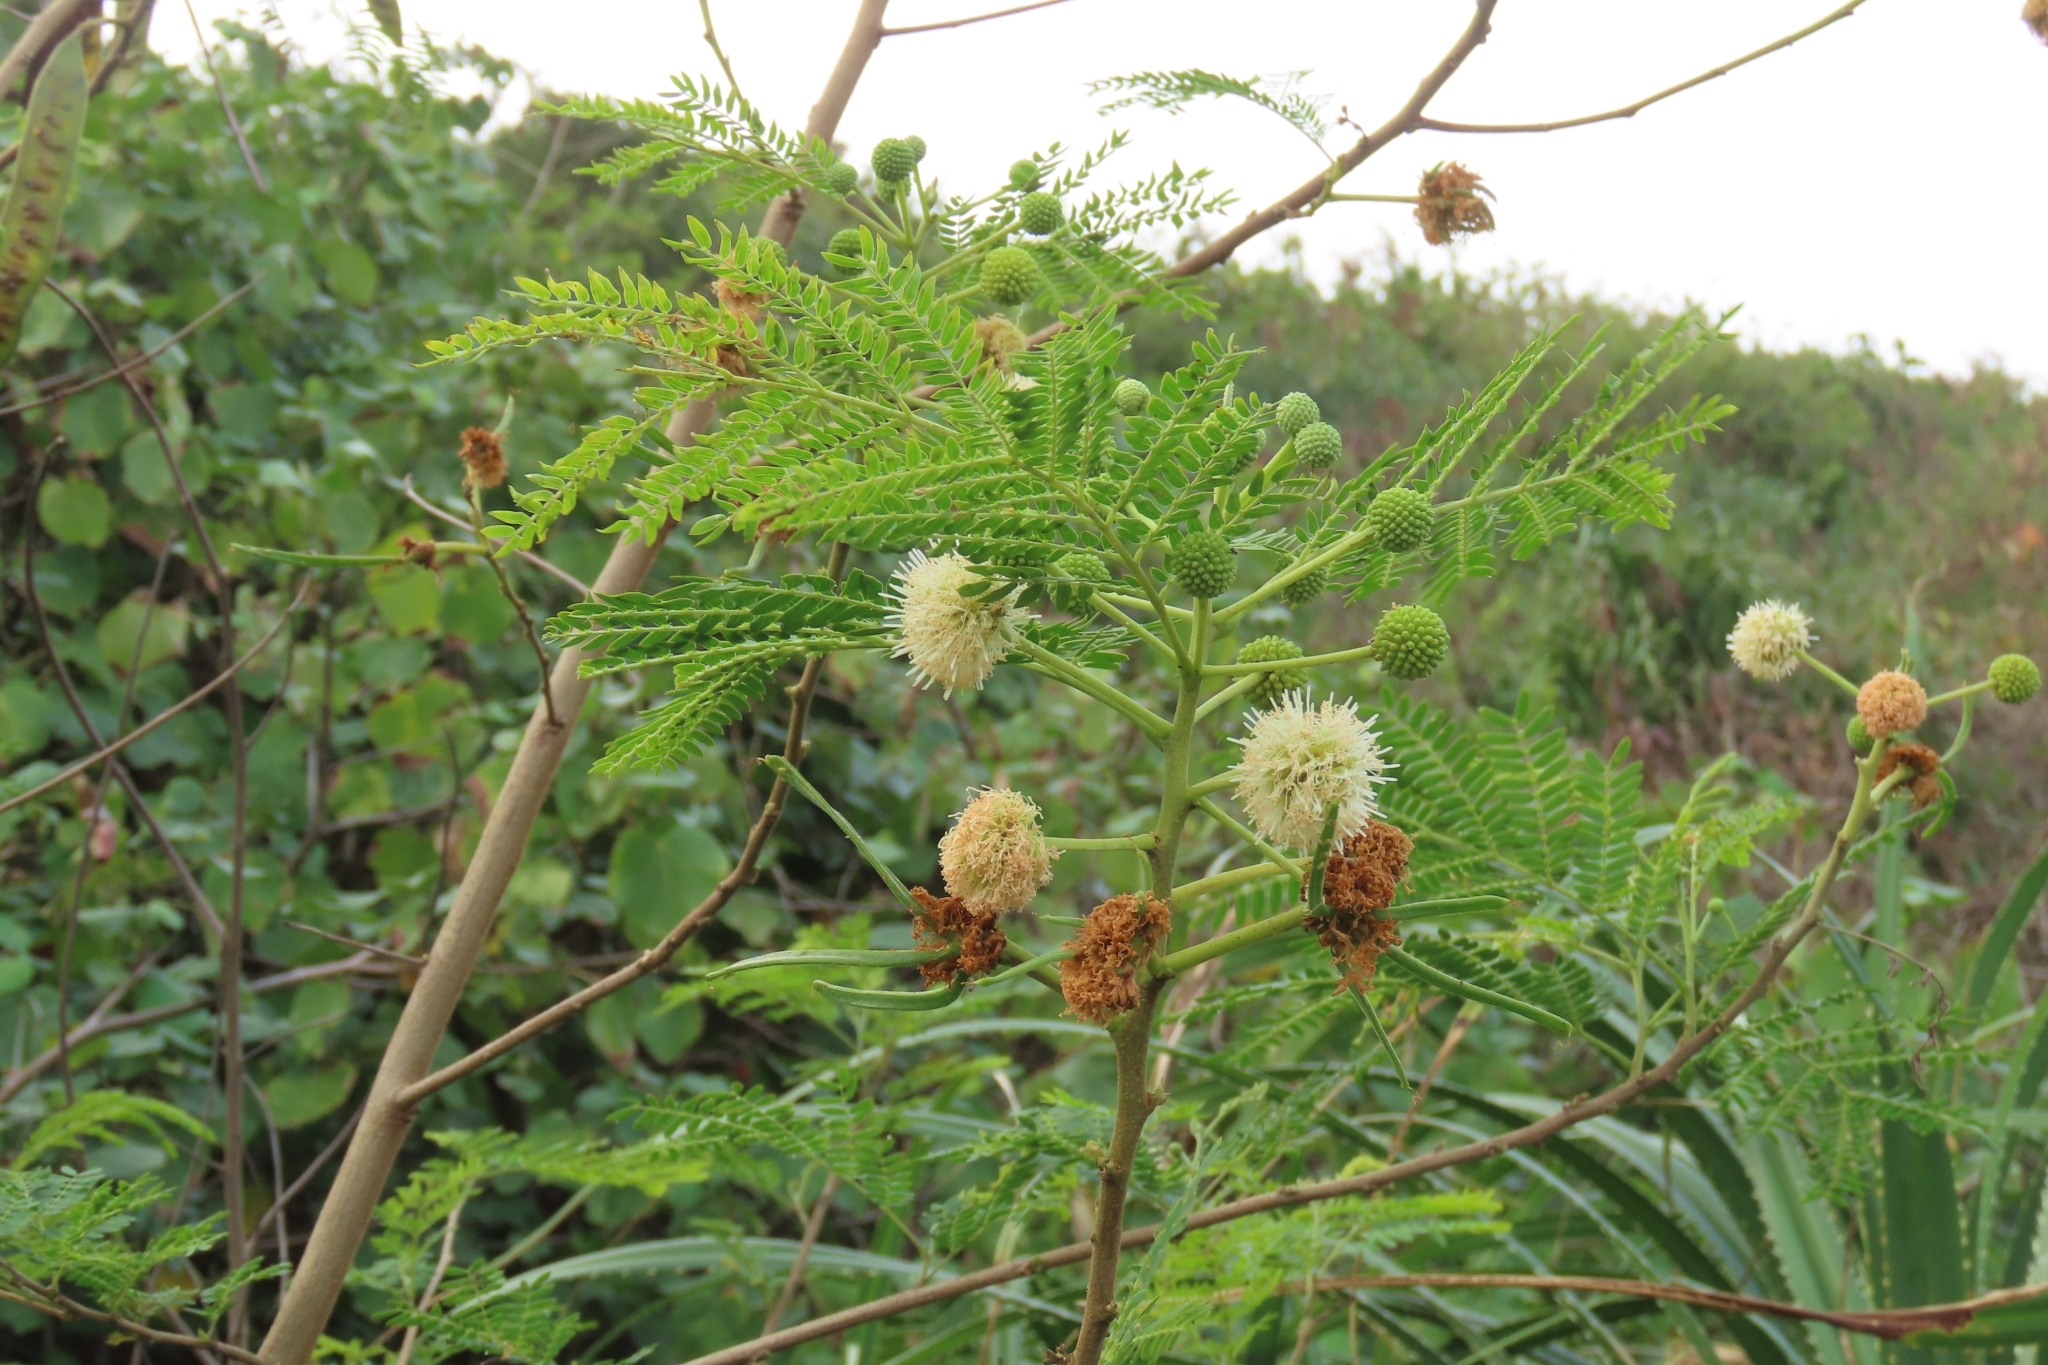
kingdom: Plantae
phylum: Tracheophyta
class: Magnoliopsida
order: Fabales
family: Fabaceae
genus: Leucaena
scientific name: Leucaena leucocephala
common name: White leadtree
